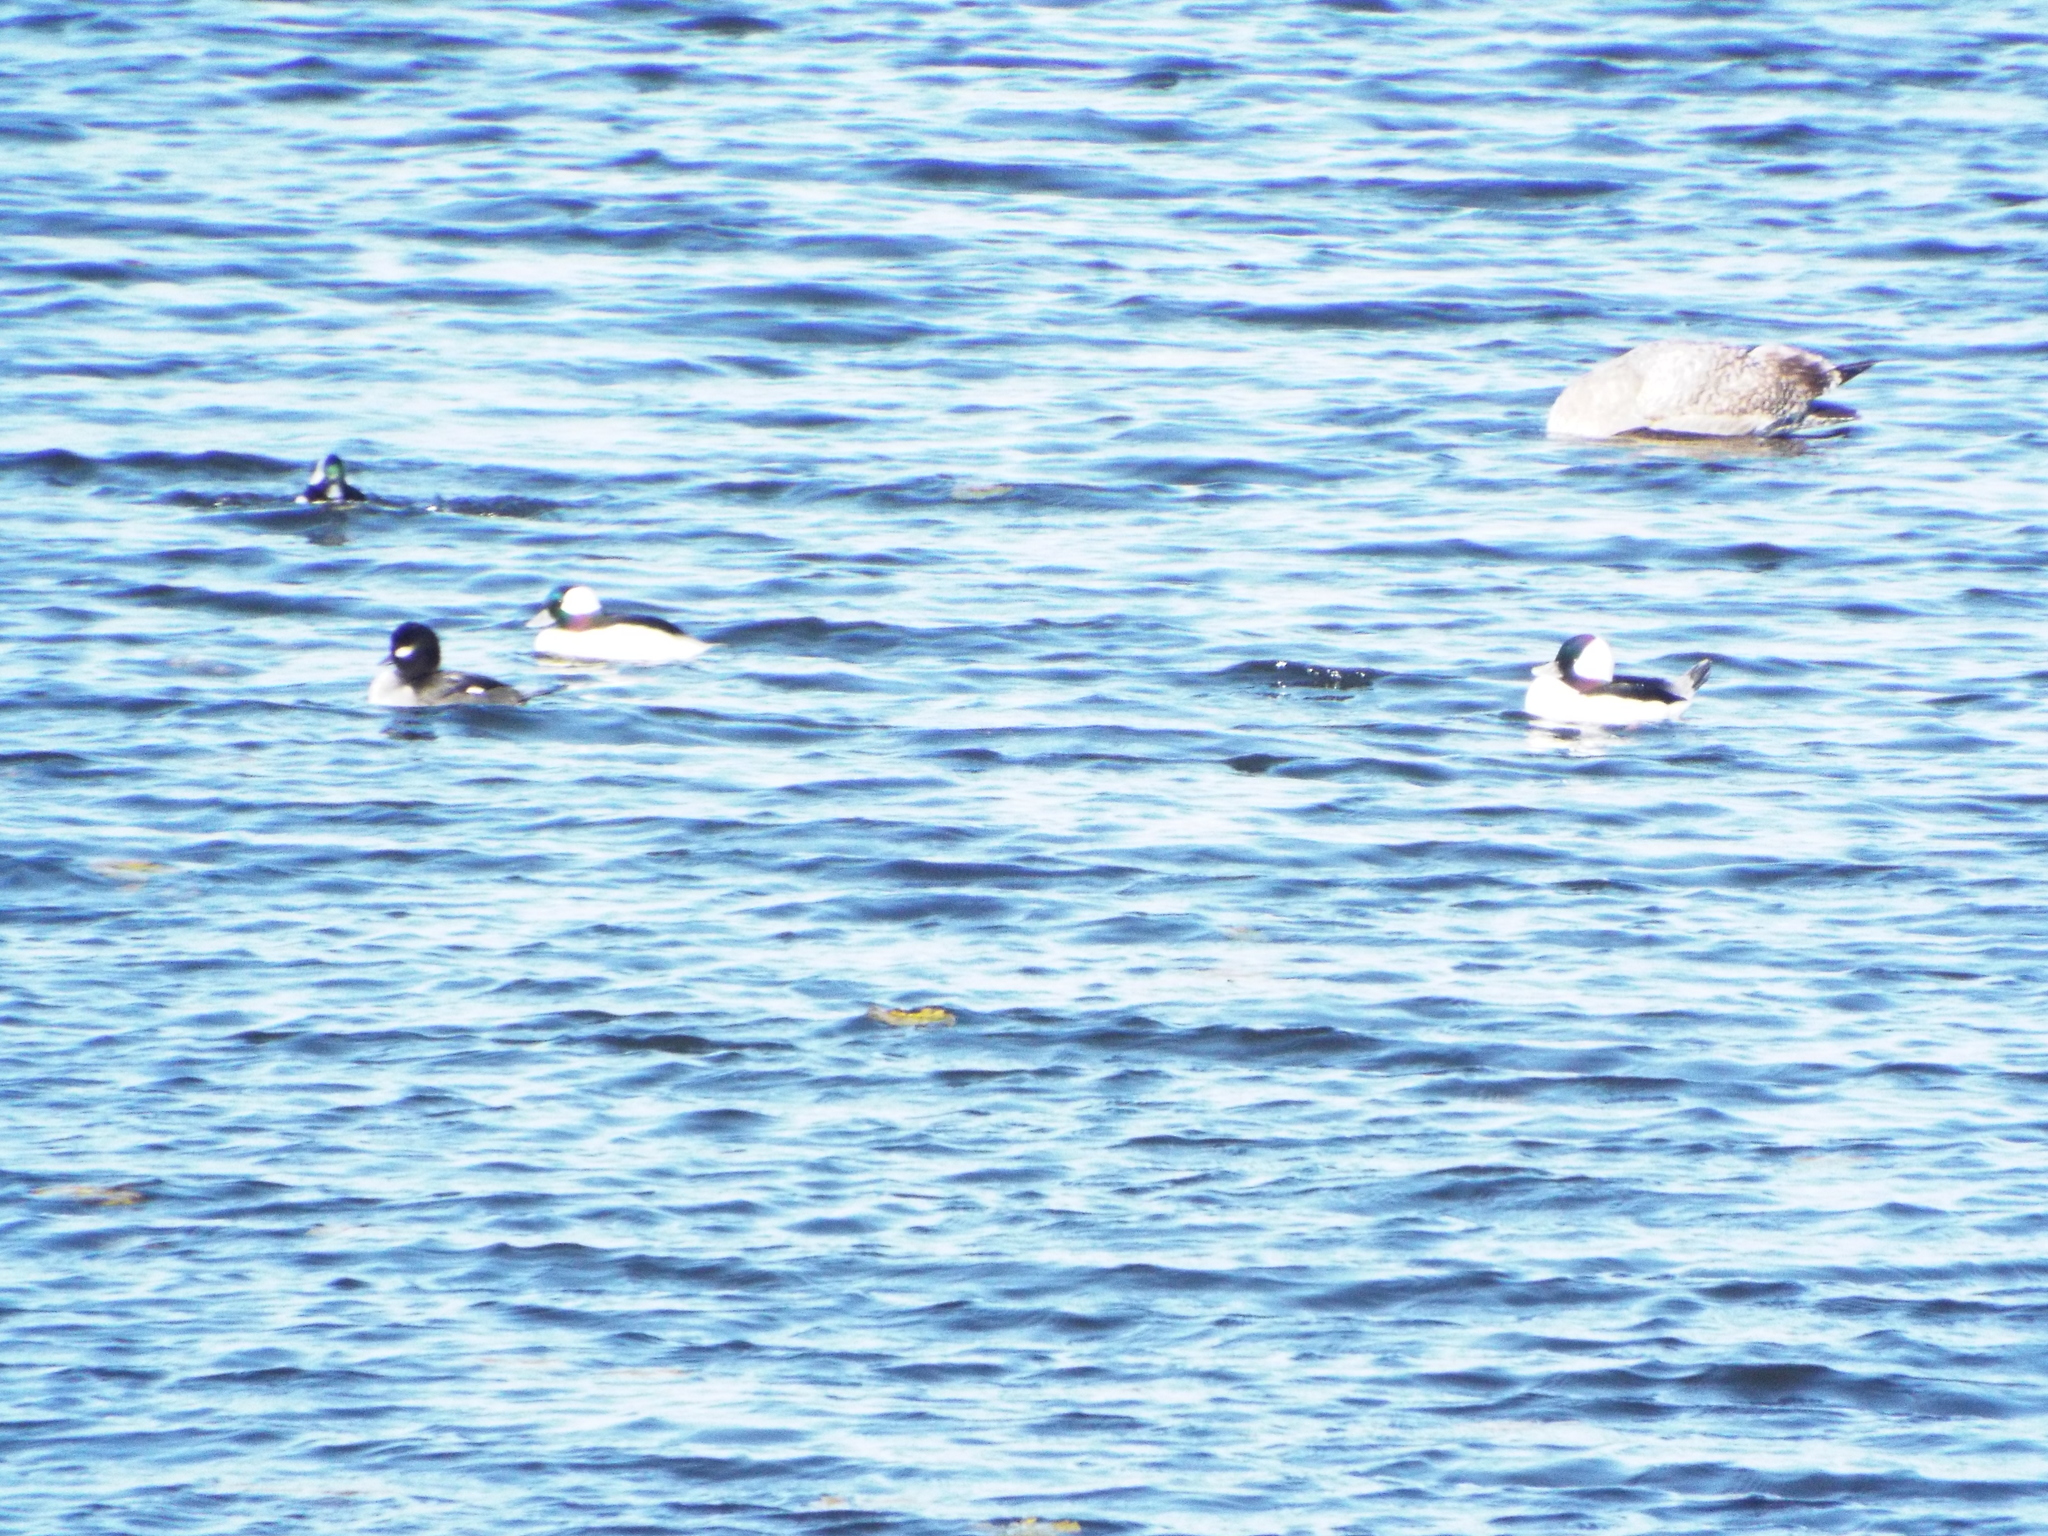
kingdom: Animalia
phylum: Chordata
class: Aves
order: Anseriformes
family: Anatidae
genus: Bucephala
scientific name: Bucephala albeola
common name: Bufflehead
